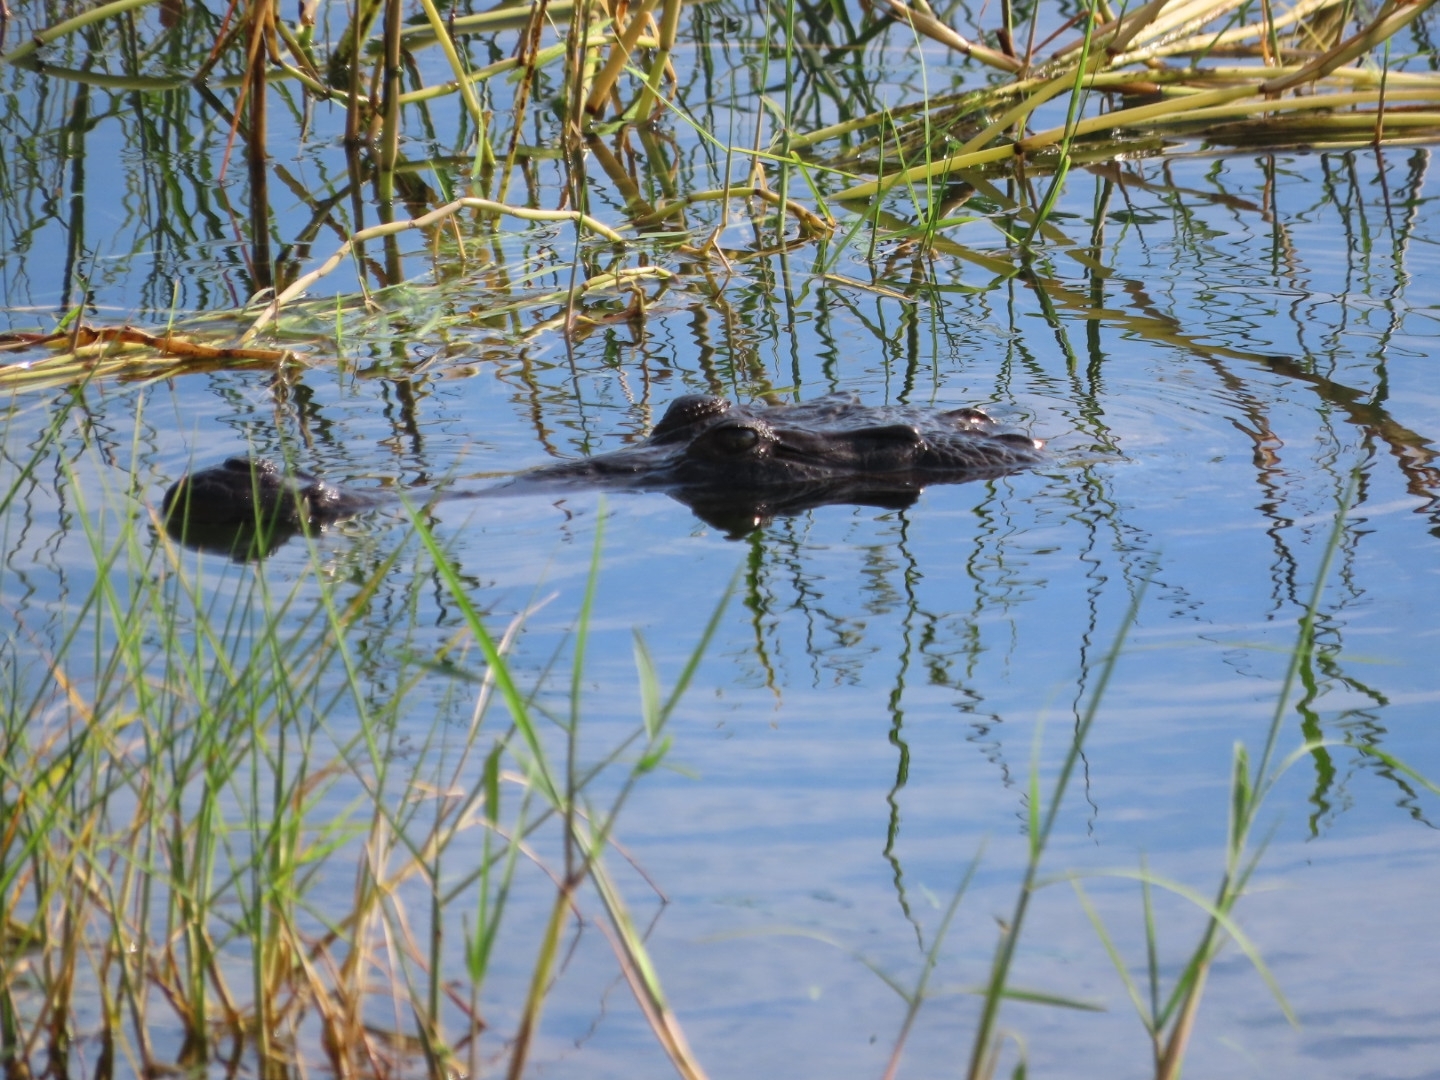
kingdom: Animalia
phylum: Chordata
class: Crocodylia
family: Crocodylidae
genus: Crocodylus
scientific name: Crocodylus acutus
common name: American crocodile
